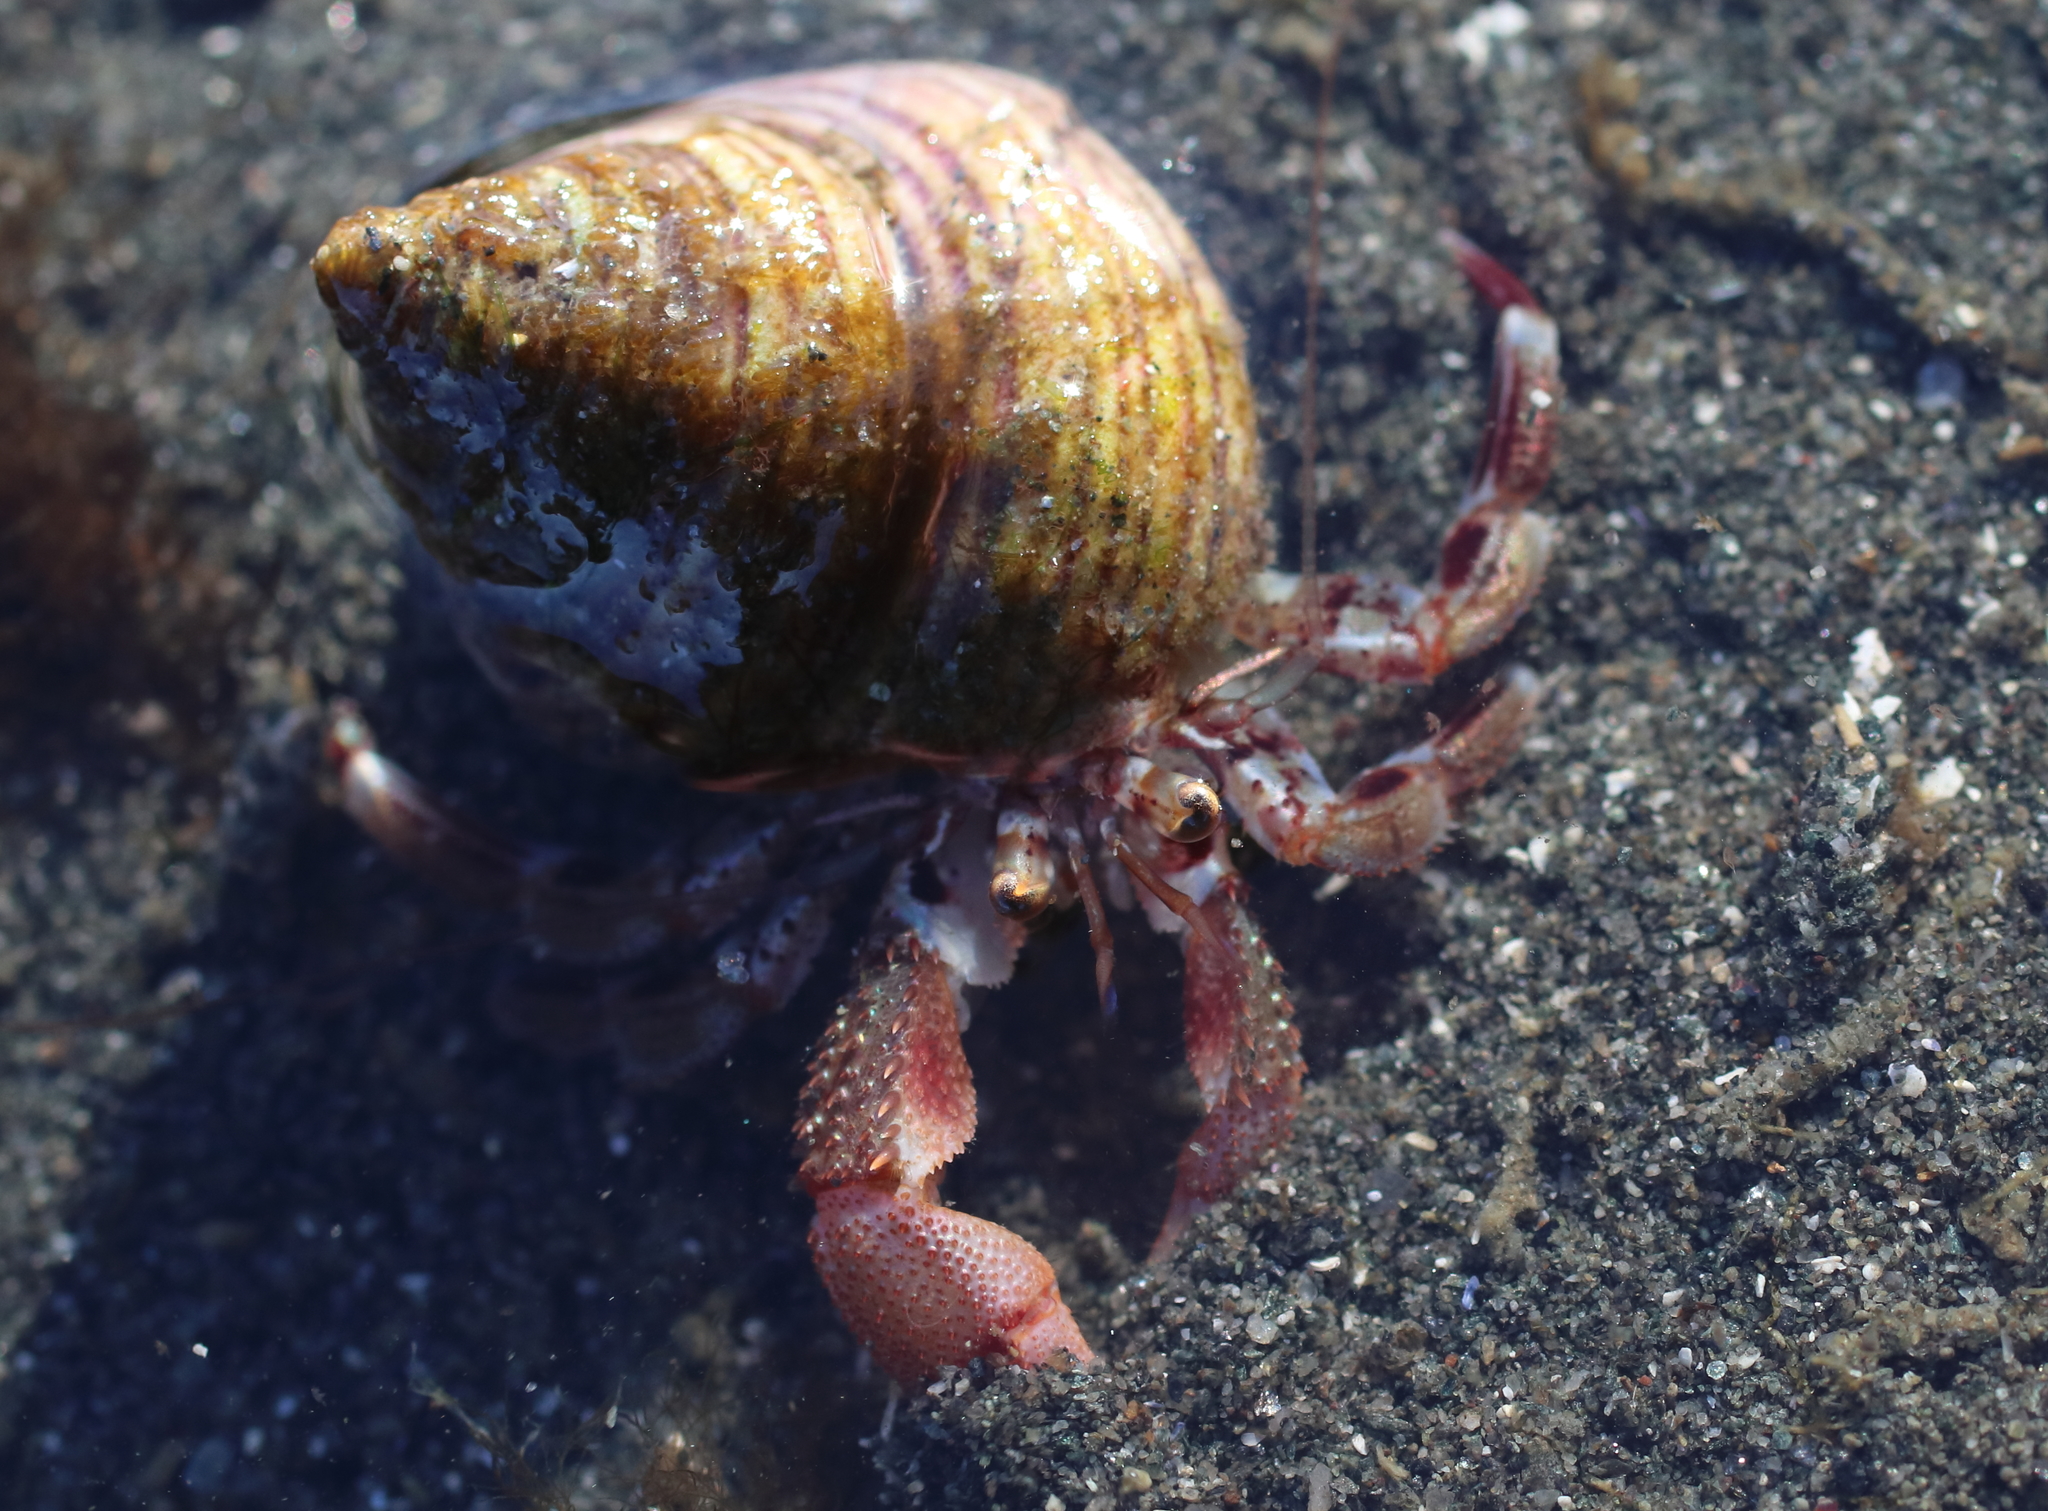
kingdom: Animalia
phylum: Arthropoda
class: Malacostraca
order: Decapoda
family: Paguridae
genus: Pagurus
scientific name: Pagurus ochotensis
